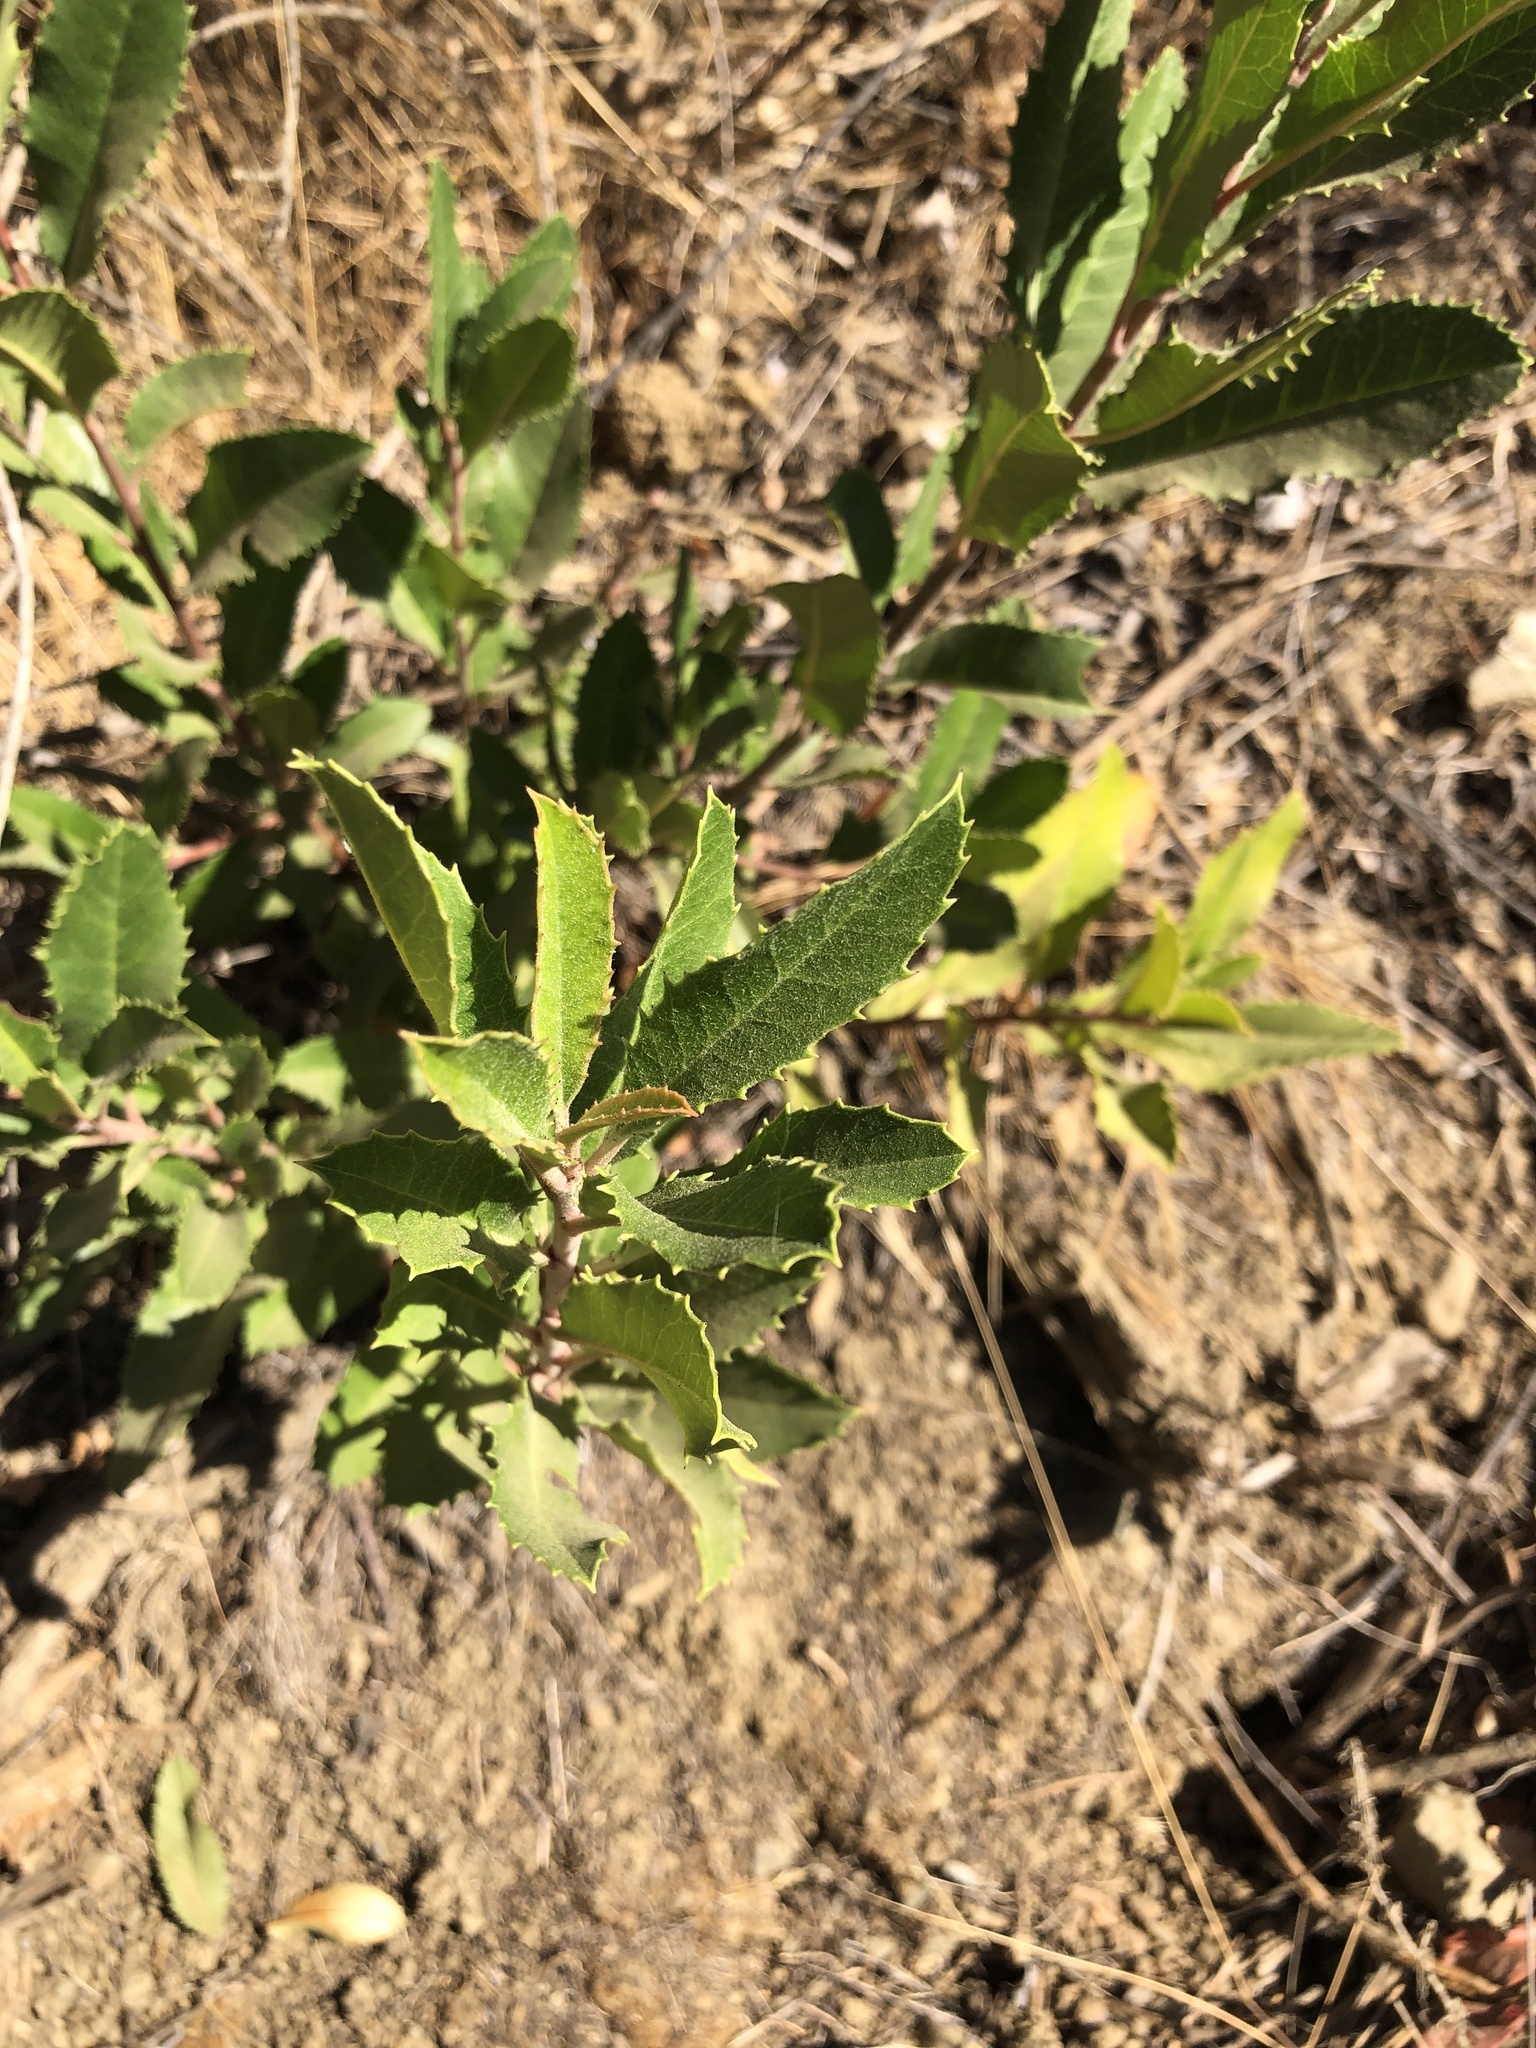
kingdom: Plantae
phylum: Tracheophyta
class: Magnoliopsida
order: Rosales
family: Rosaceae
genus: Heteromeles
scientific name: Heteromeles arbutifolia
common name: California-holly
